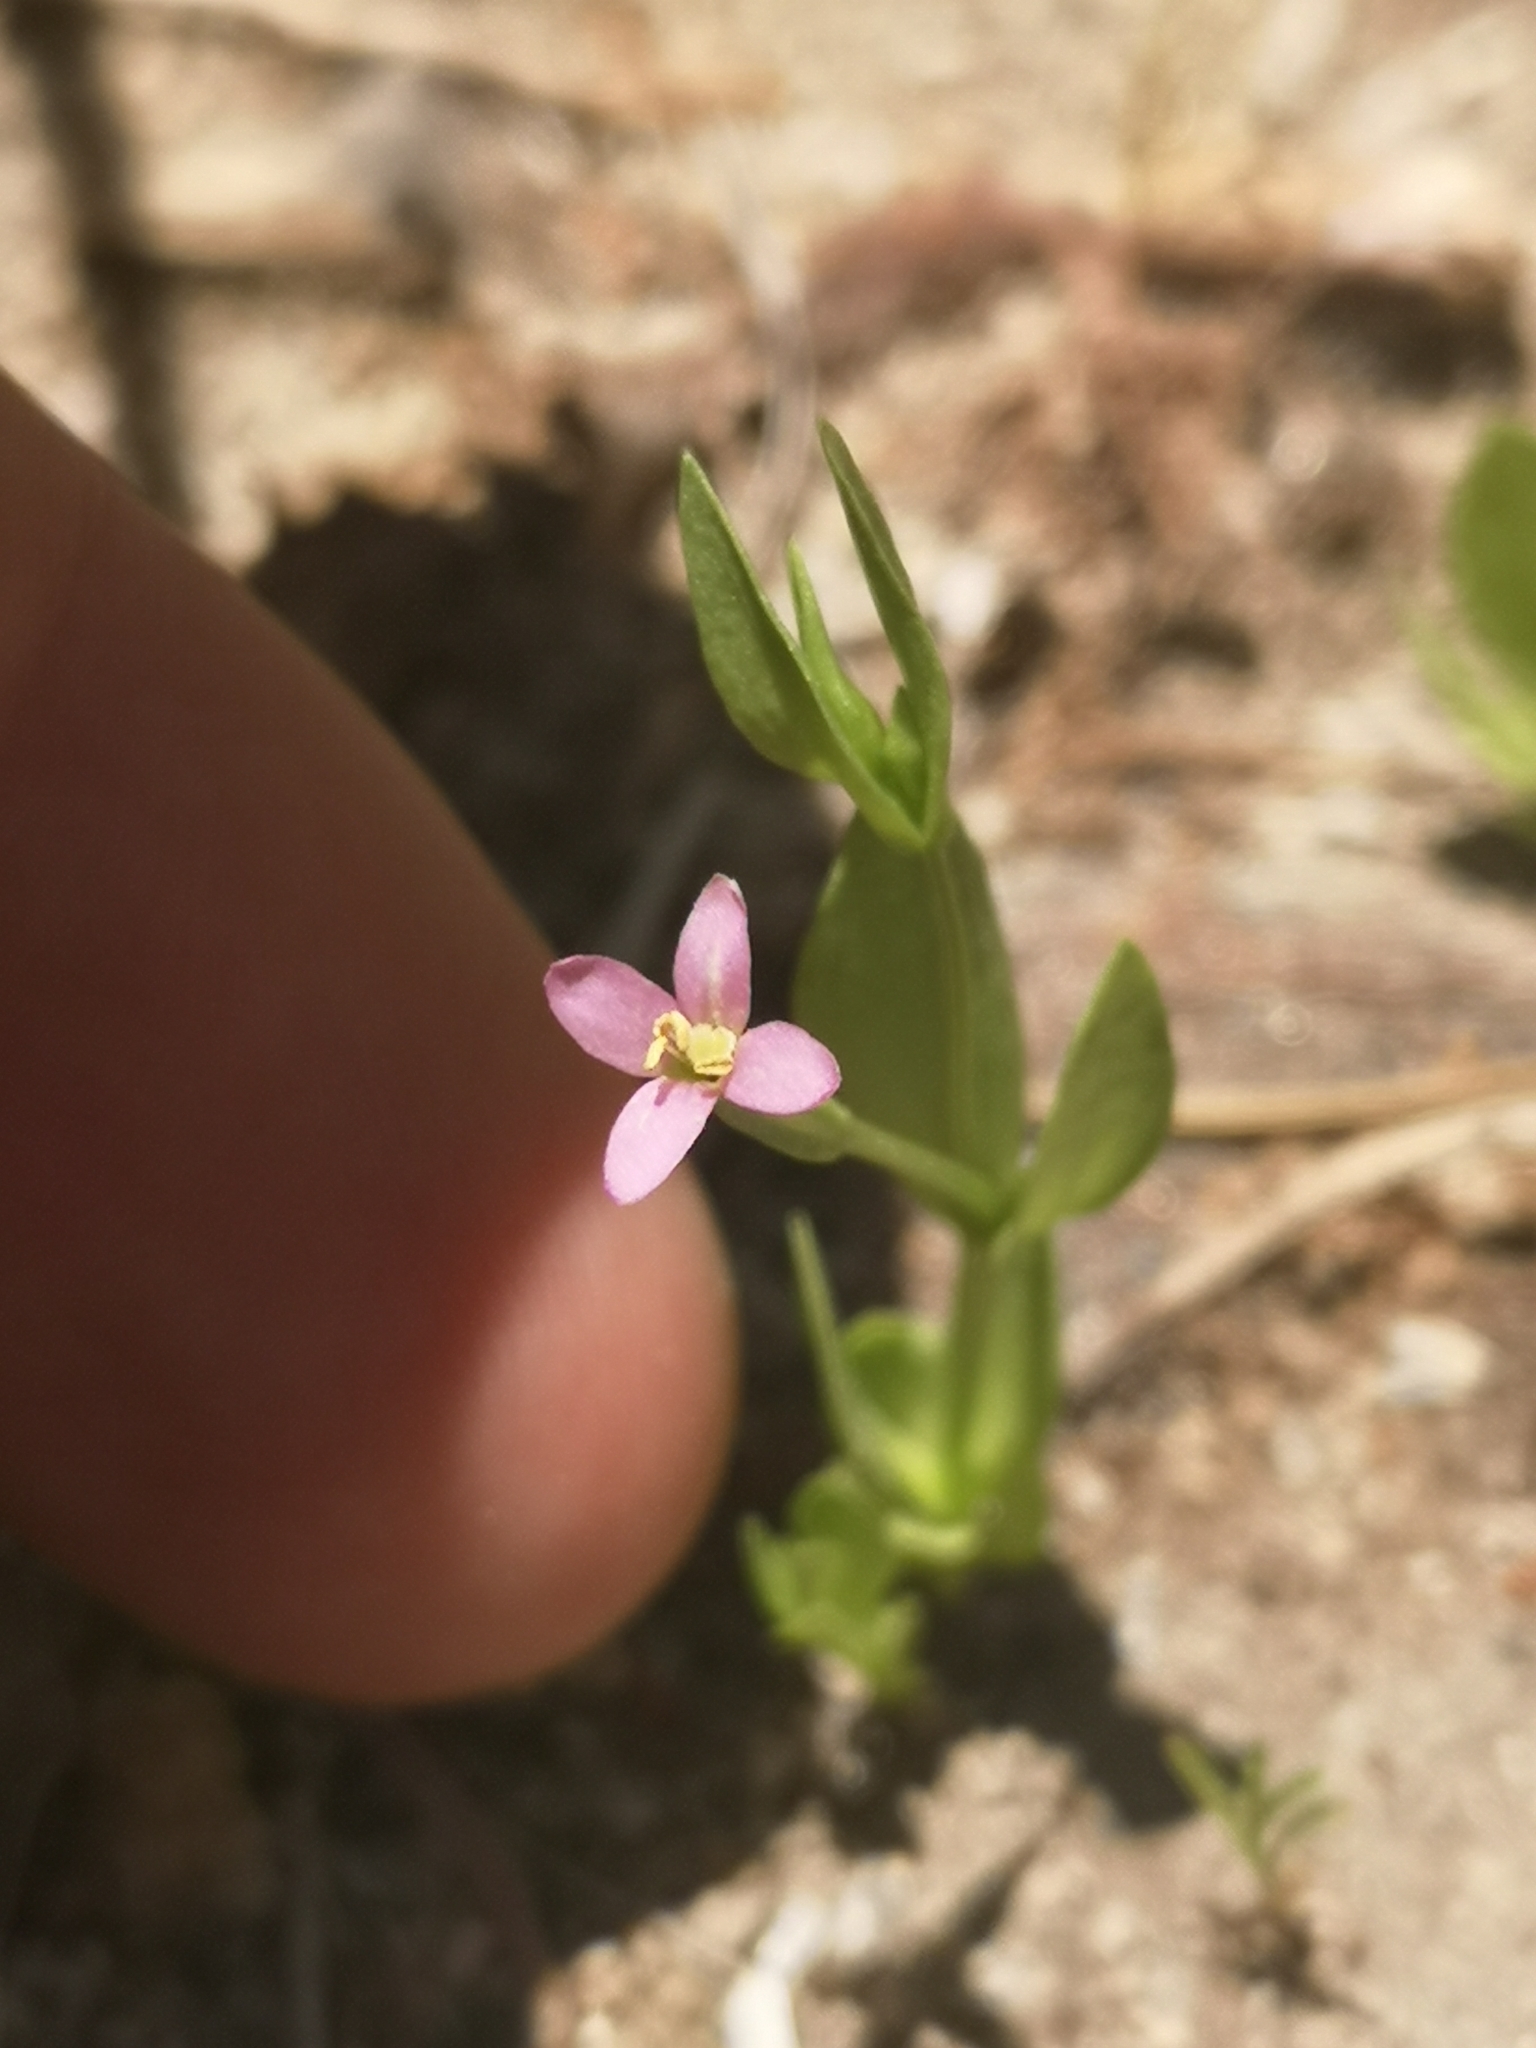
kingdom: Plantae
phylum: Tracheophyta
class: Magnoliopsida
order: Gentianales
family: Gentianaceae
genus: Zeltnera
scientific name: Zeltnera exaltata
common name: Great basin centaury
